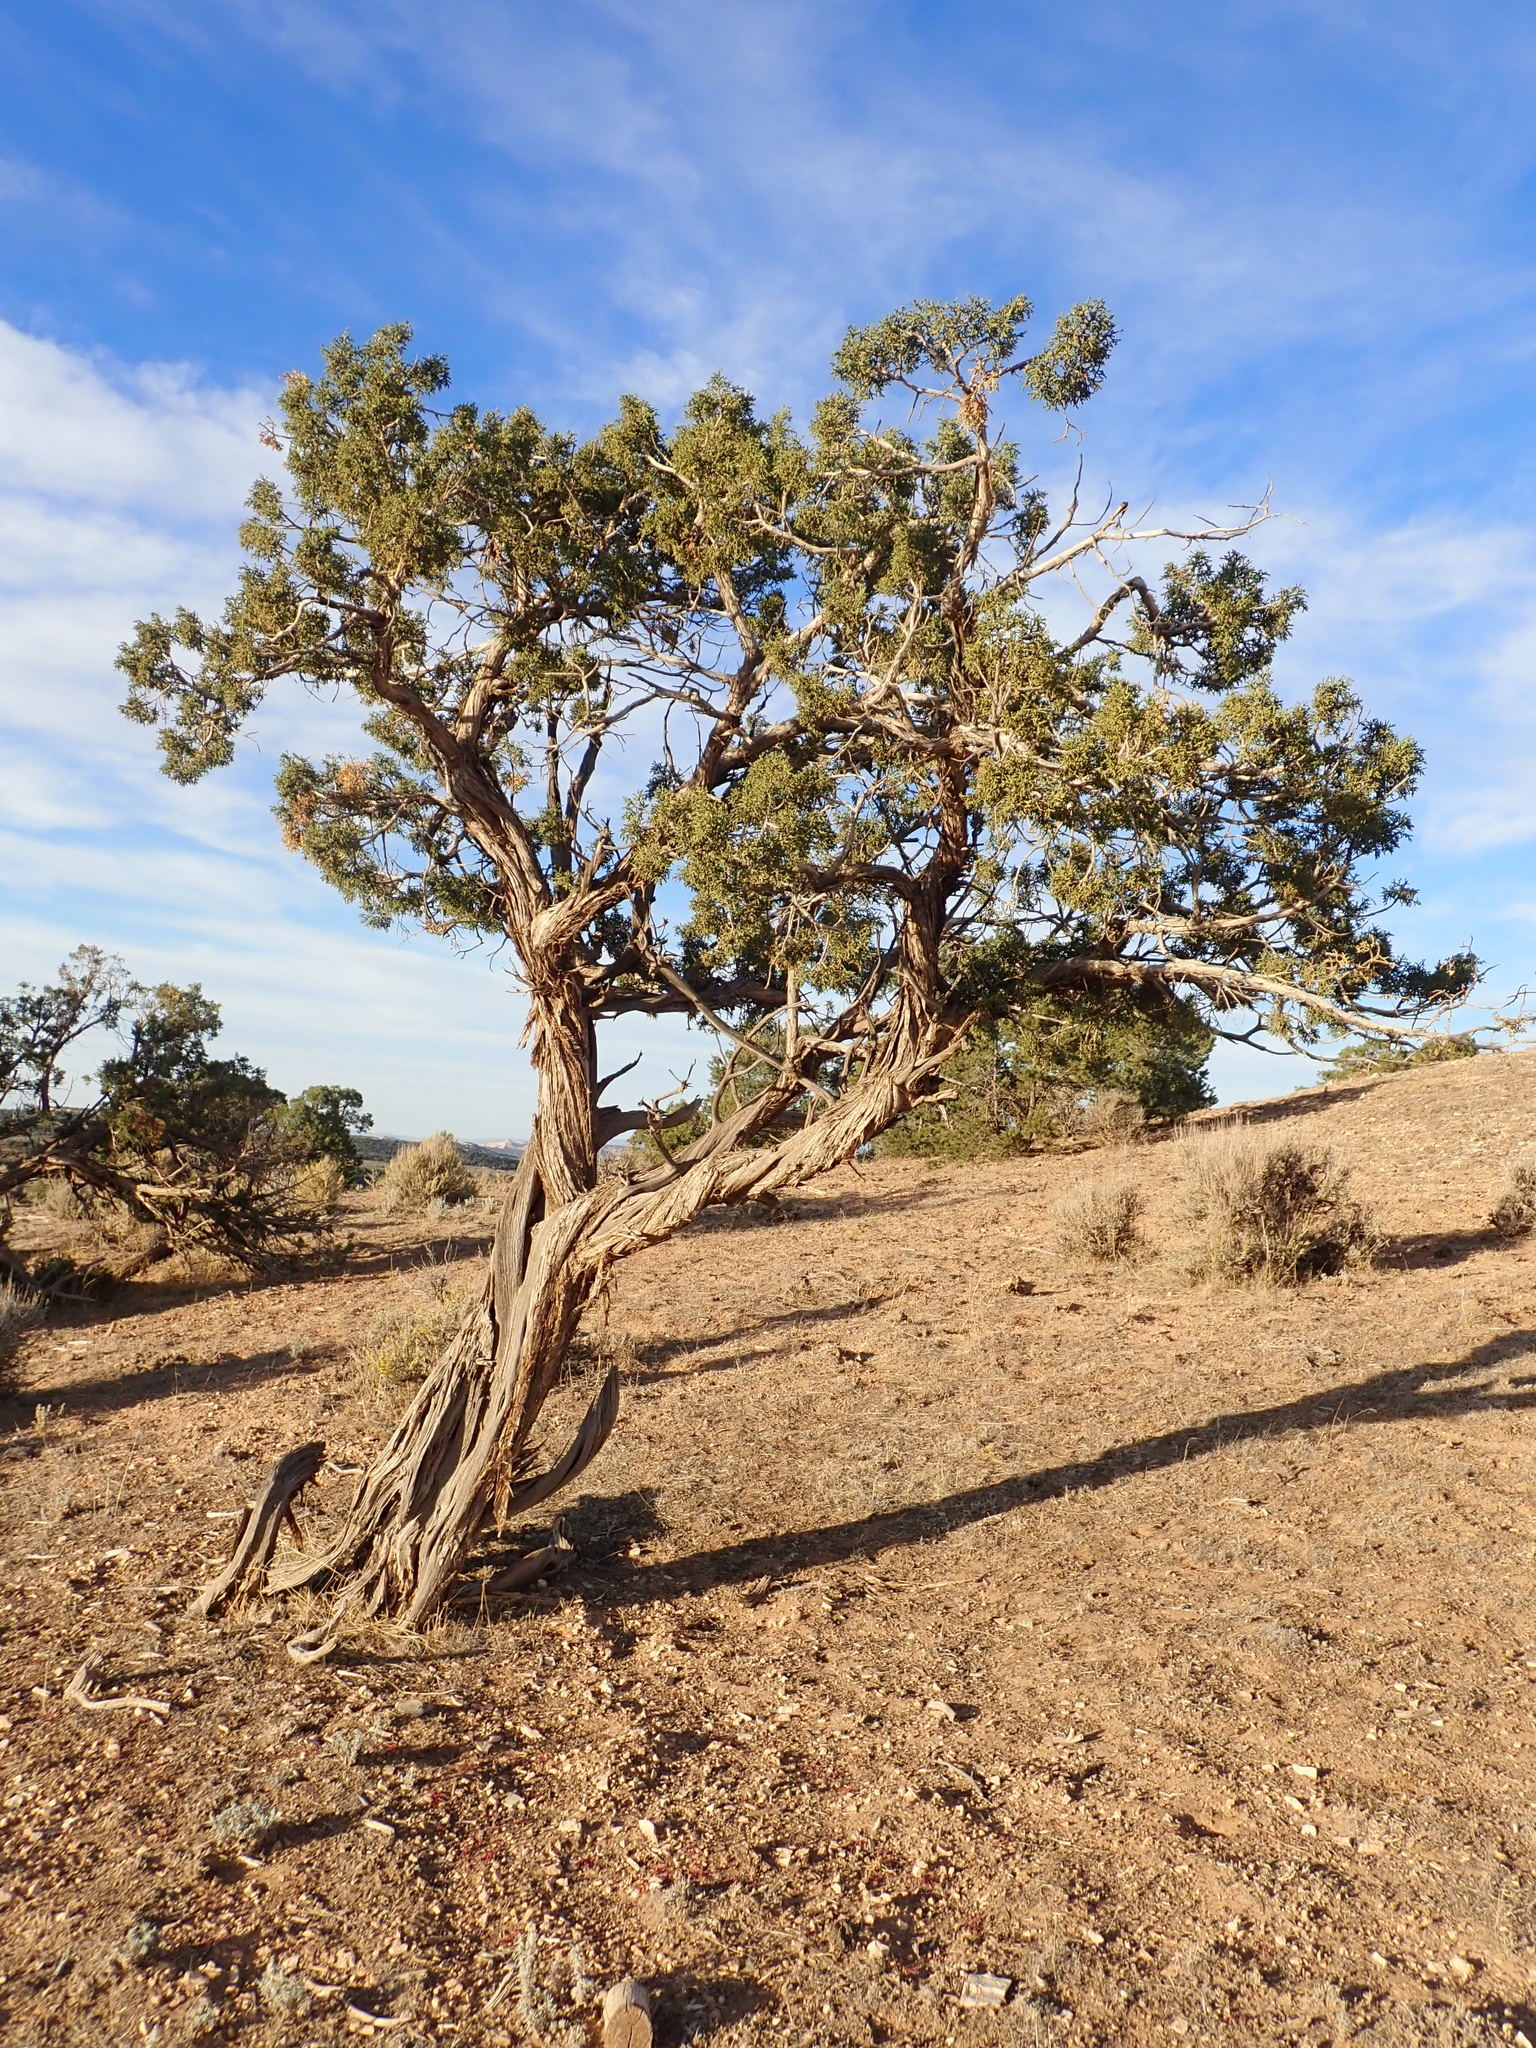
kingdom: Plantae
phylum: Tracheophyta
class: Pinopsida
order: Pinales
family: Cupressaceae
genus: Juniperus
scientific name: Juniperus osteosperma
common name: Utah juniper
